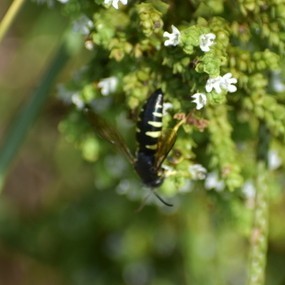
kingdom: Animalia
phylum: Arthropoda
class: Insecta
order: Hymenoptera
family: Crabronidae
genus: Bicyrtes
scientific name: Bicyrtes quadrifasciatus
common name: Four-banded stink bug hunter wasp
